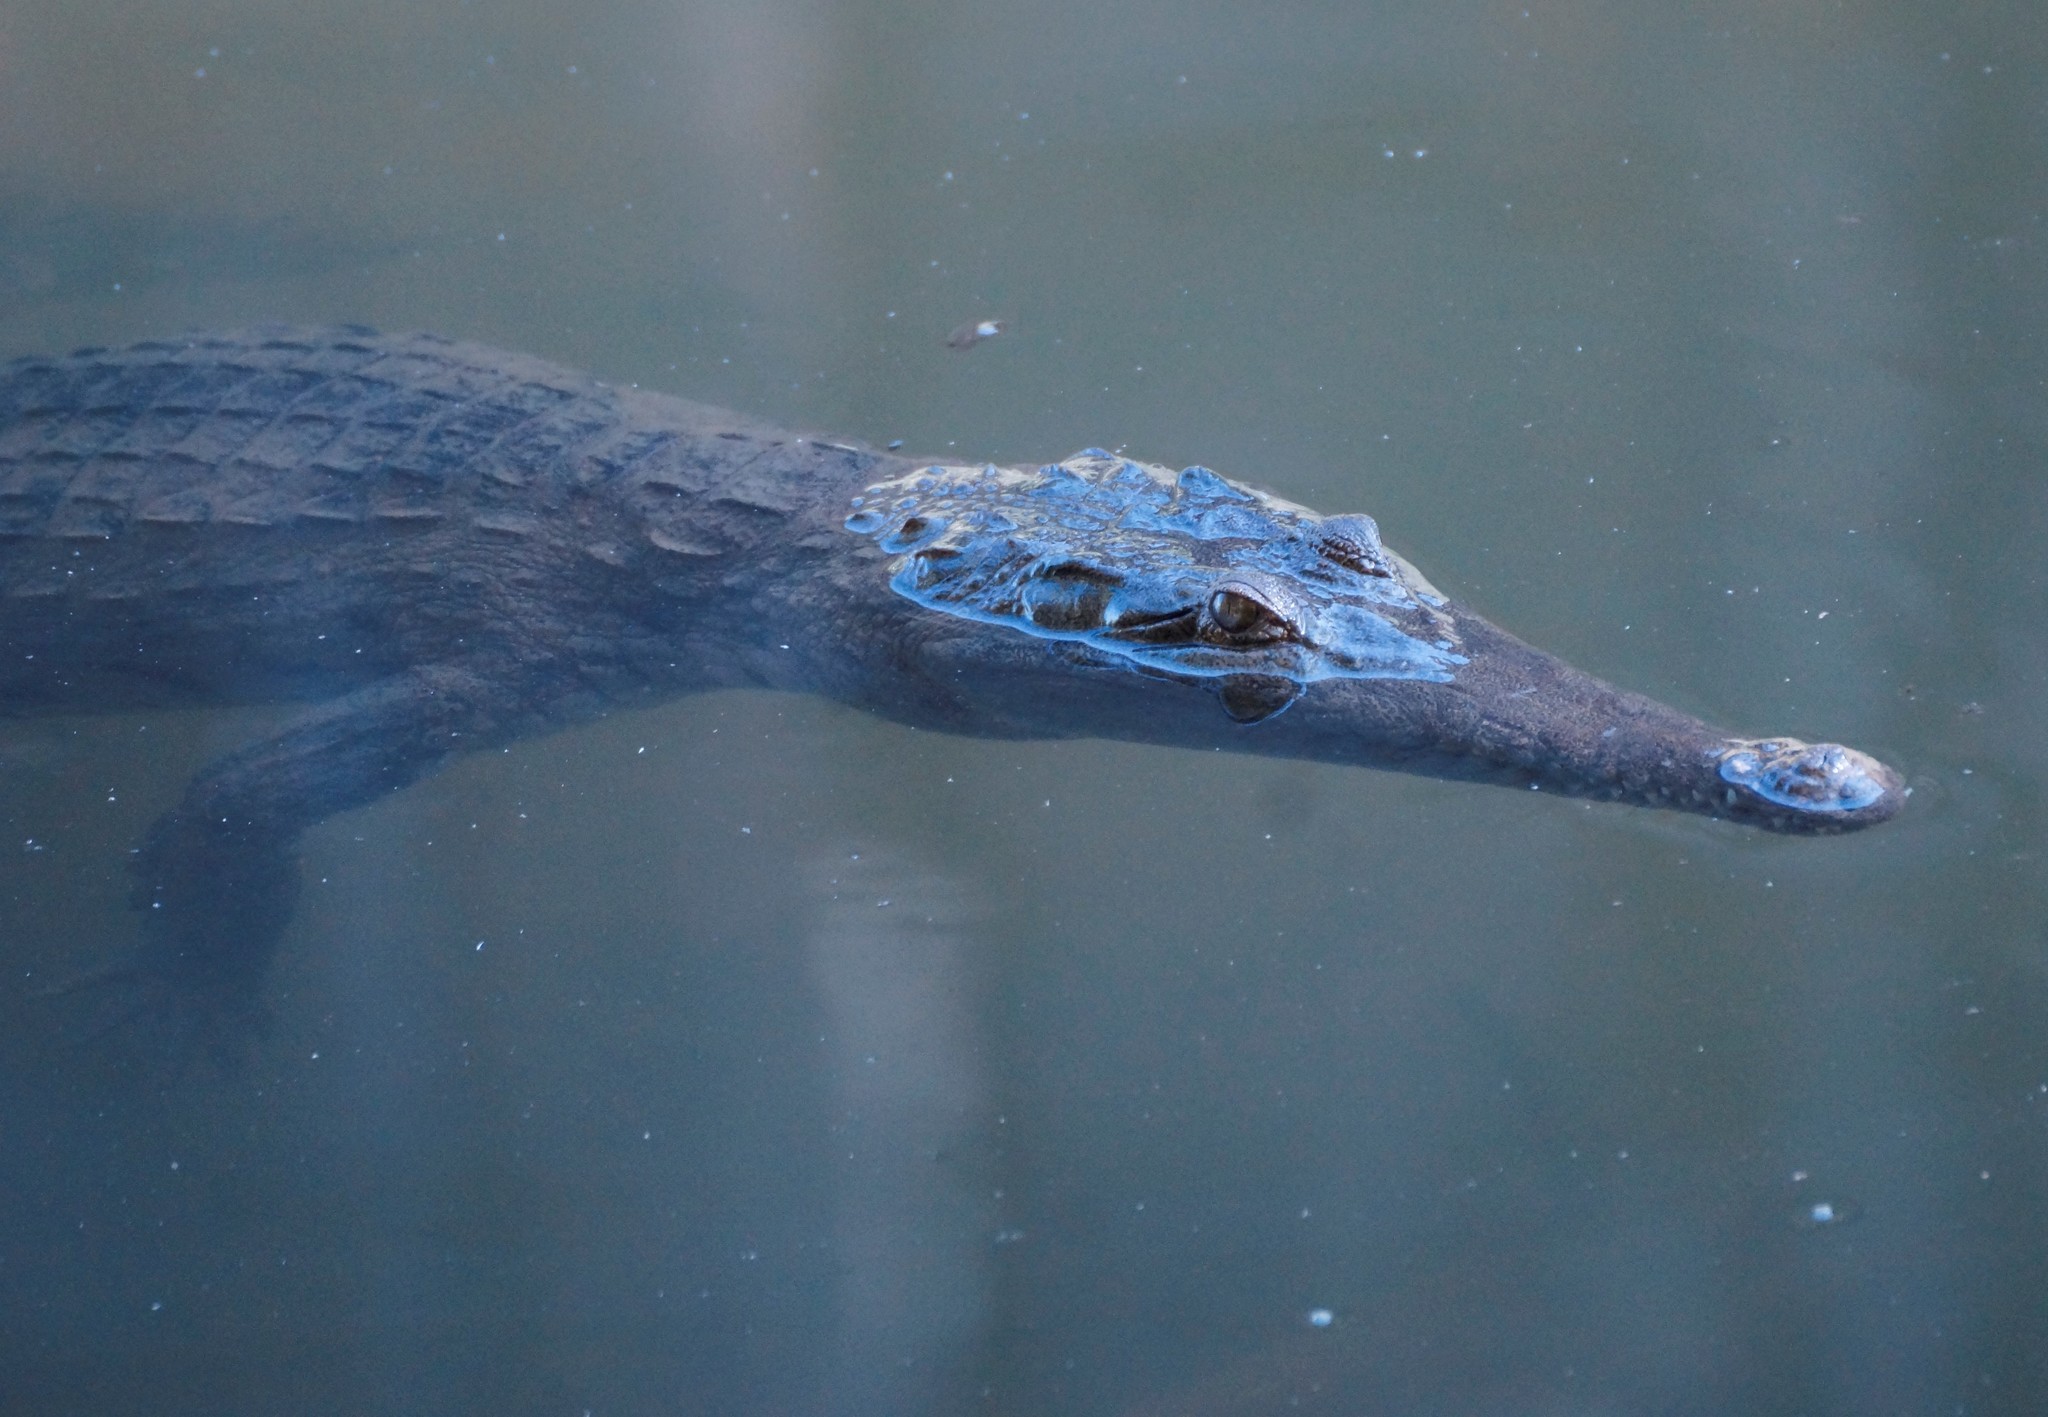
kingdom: Animalia
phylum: Chordata
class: Crocodylia
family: Crocodylidae
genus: Crocodylus
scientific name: Crocodylus johnsoni
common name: Freshwater crocodile
